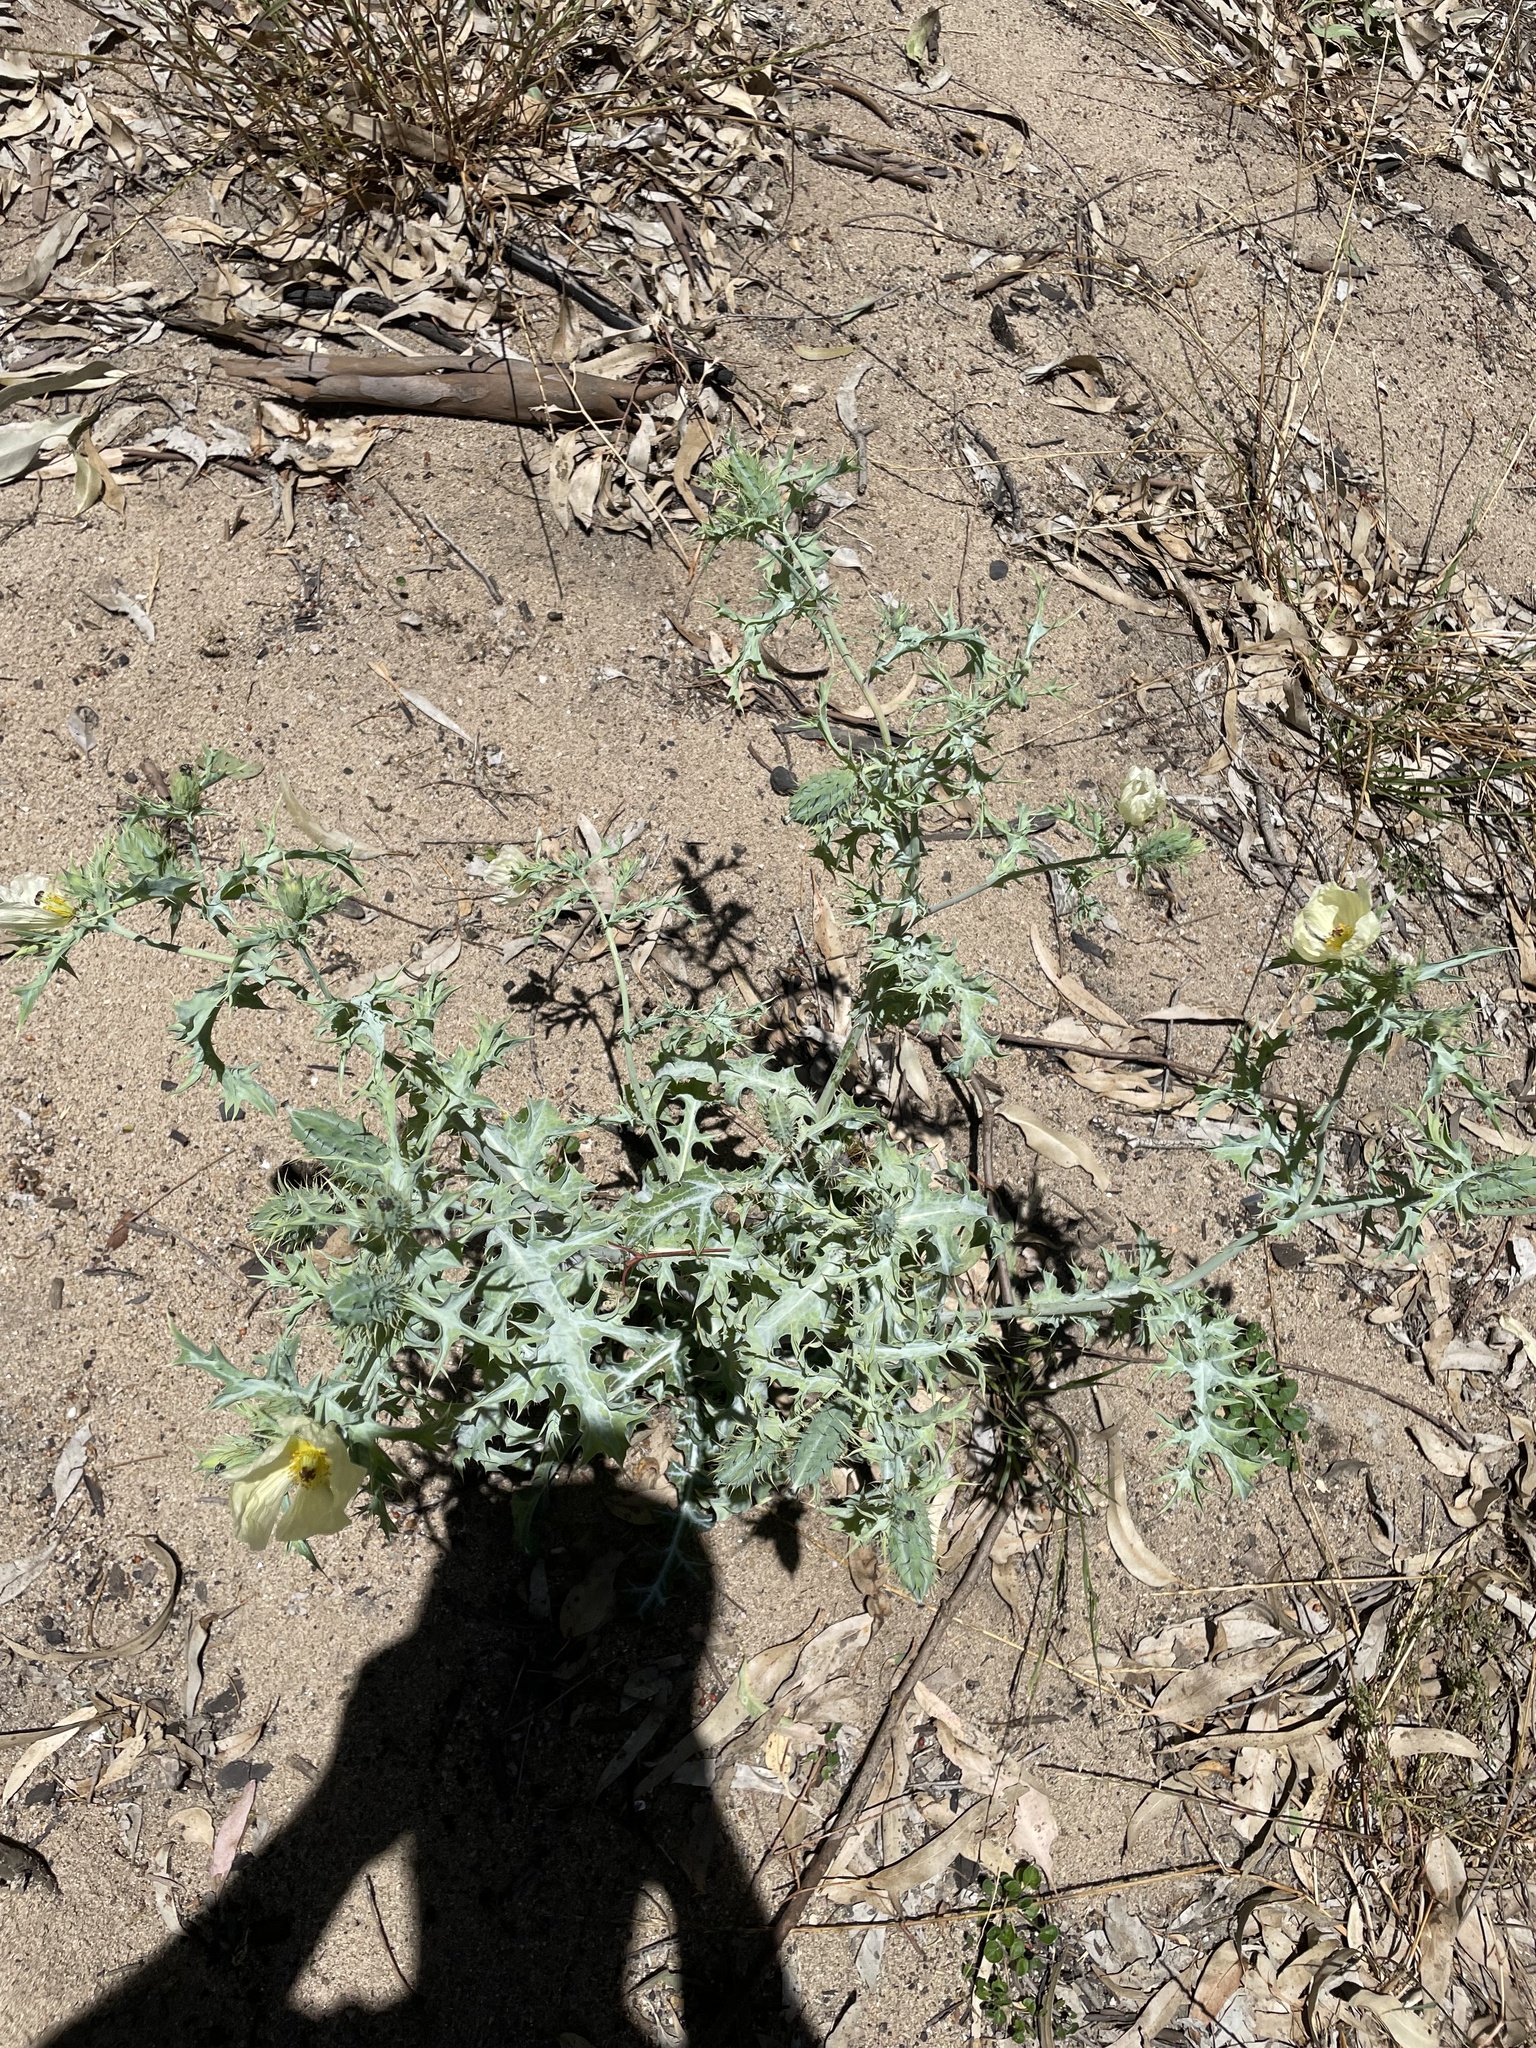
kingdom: Plantae
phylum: Tracheophyta
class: Magnoliopsida
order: Ranunculales
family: Papaveraceae
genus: Argemone
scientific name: Argemone ochroleuca
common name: White-flower mexican-poppy
